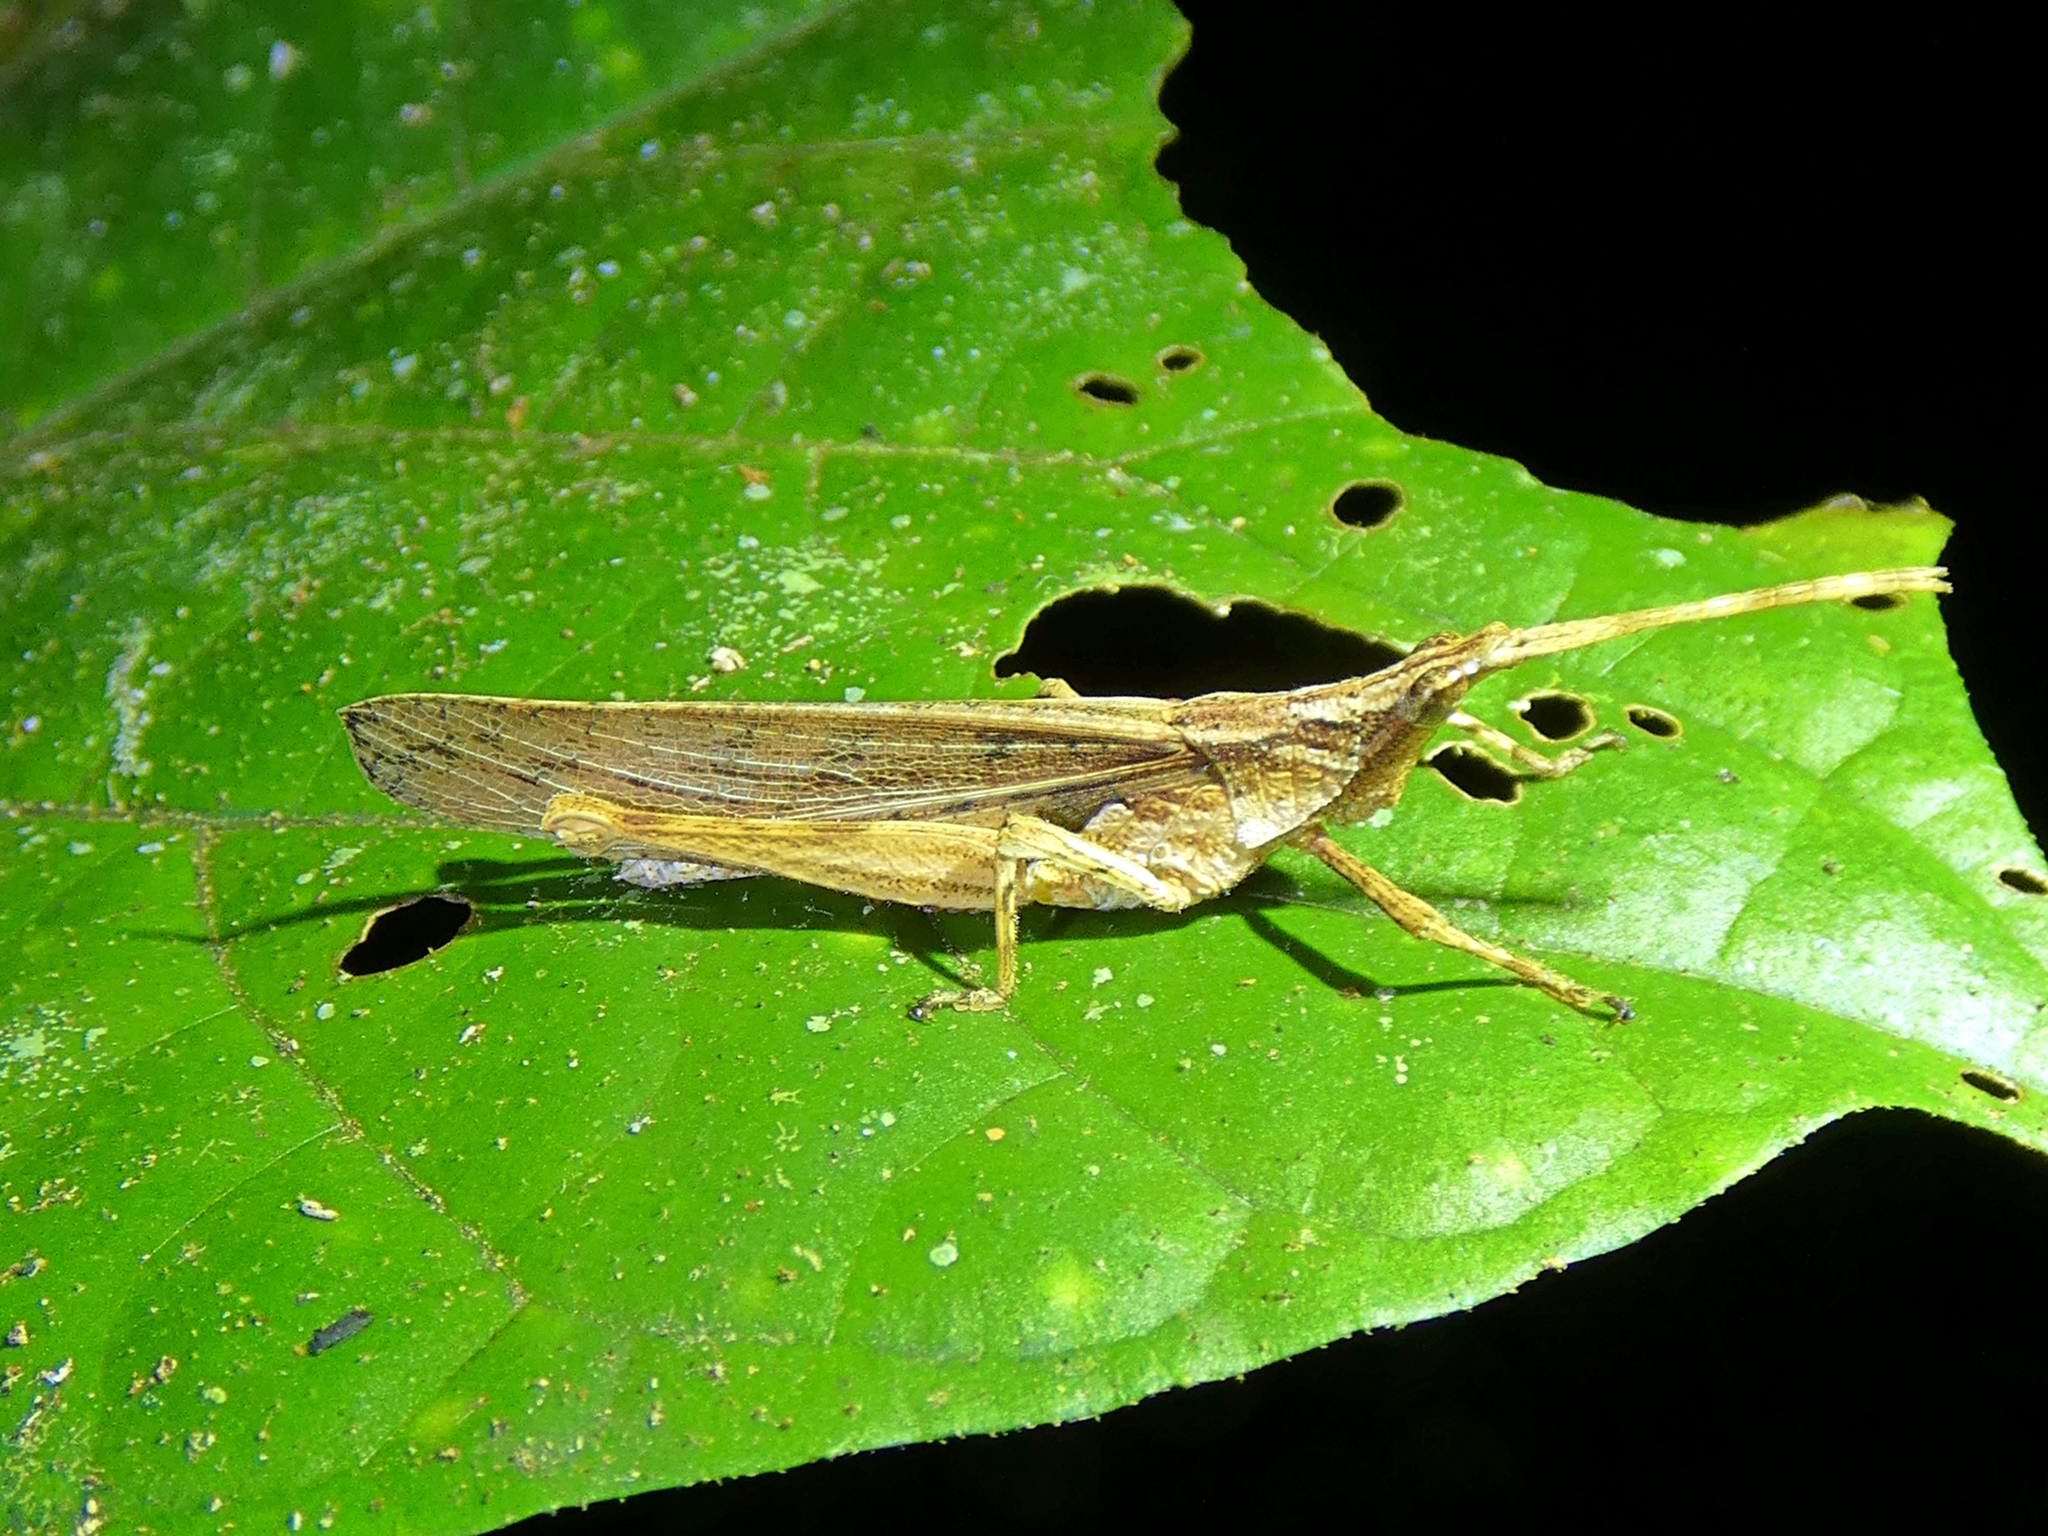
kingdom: Animalia
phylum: Arthropoda
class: Insecta
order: Orthoptera
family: Pyrgomorphidae
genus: Desmoptera
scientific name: Desmoptera truncatipennis
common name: Large forest pyrgomorph
